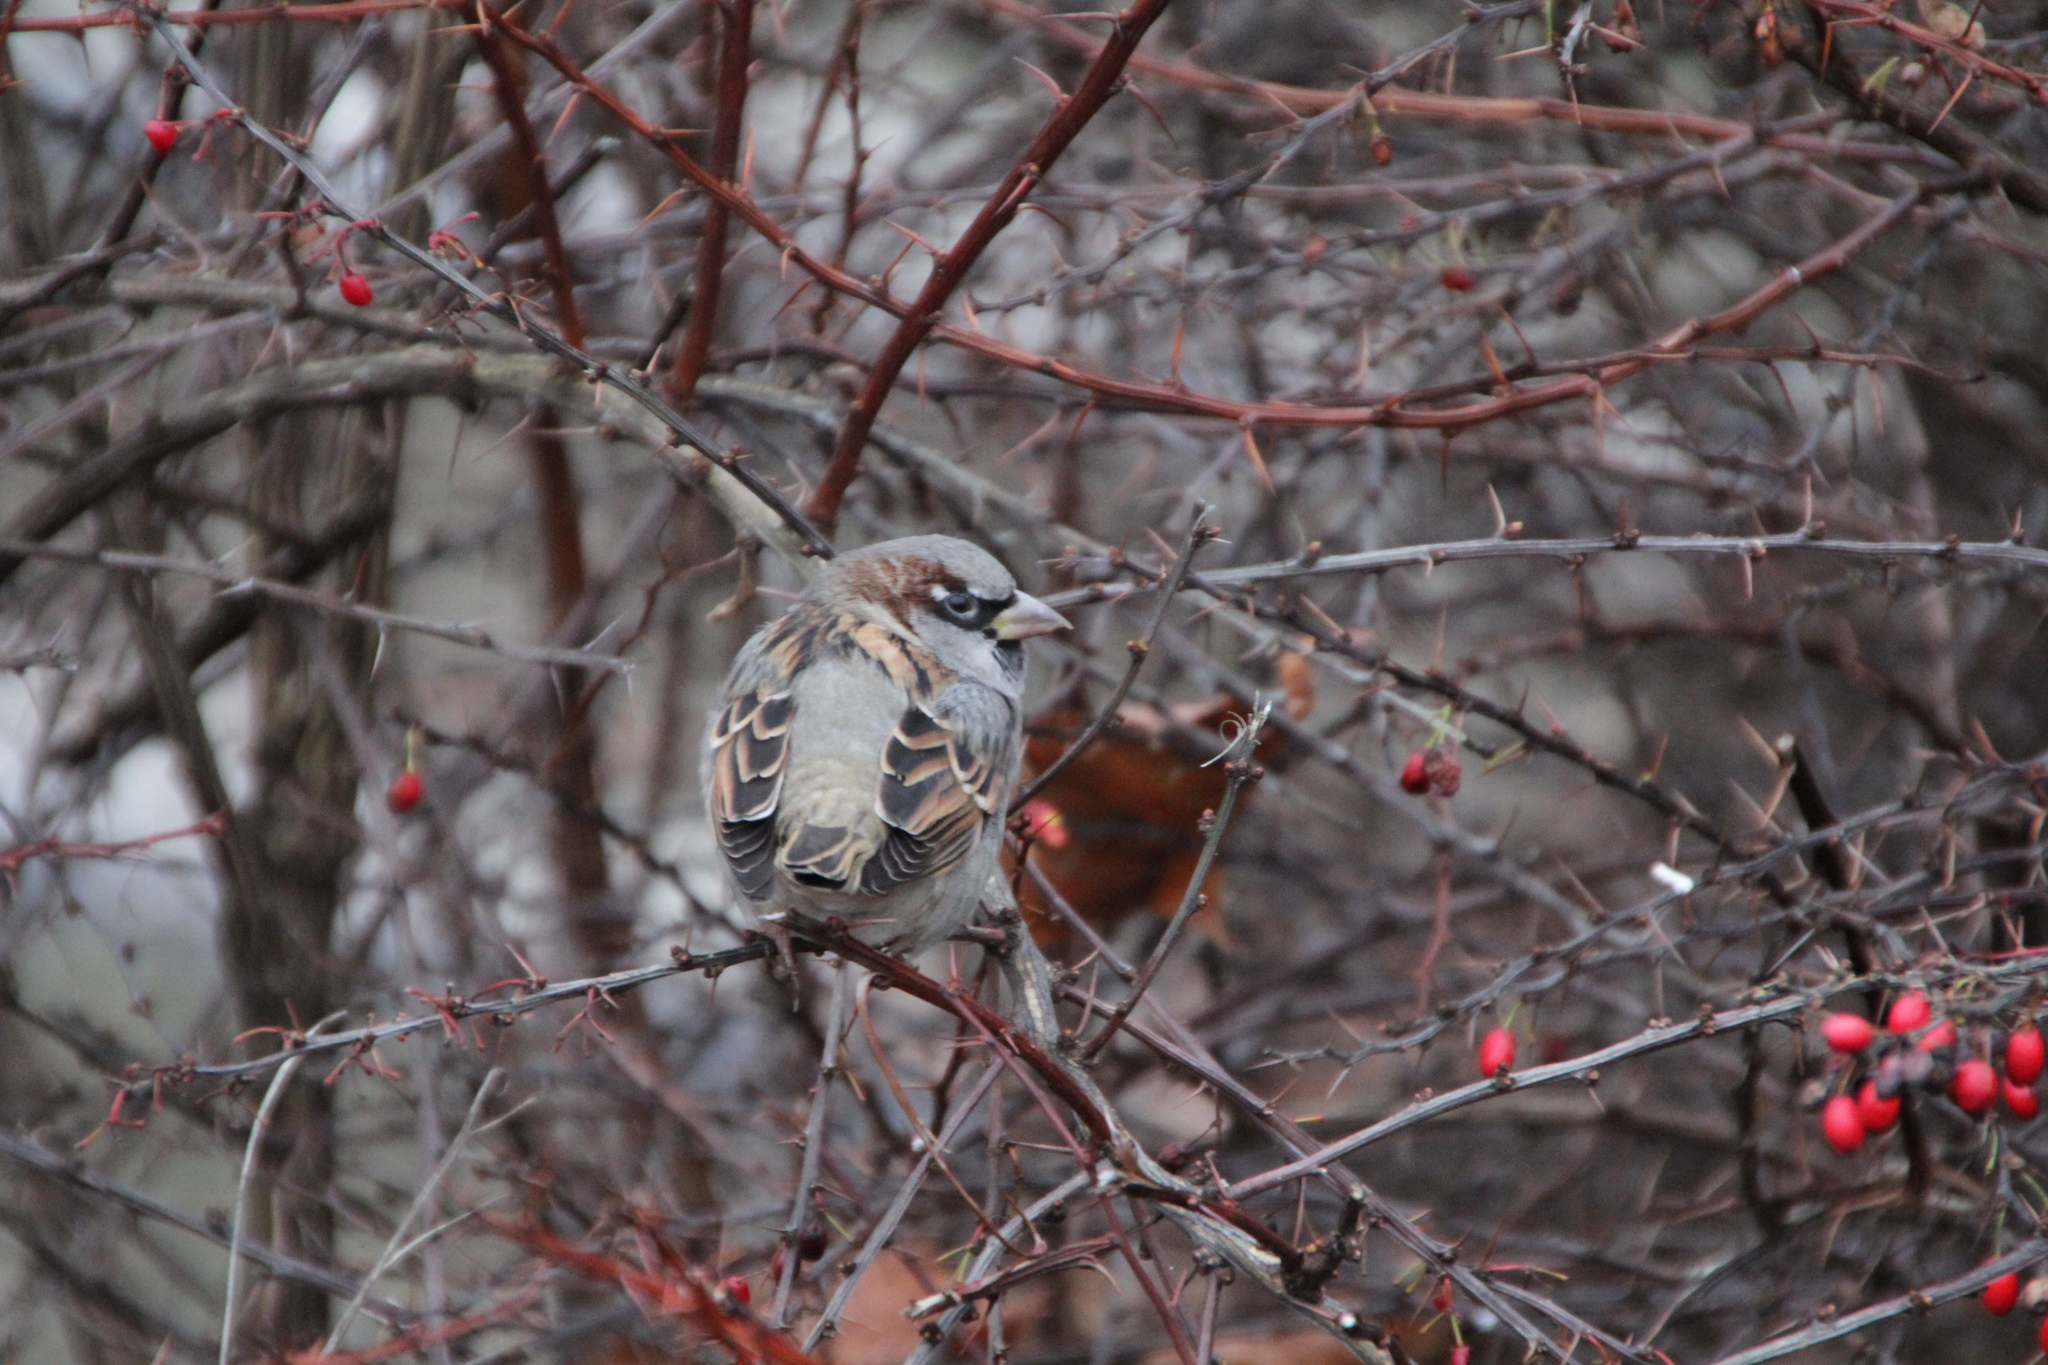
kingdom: Animalia
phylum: Chordata
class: Aves
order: Passeriformes
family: Passeridae
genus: Passer
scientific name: Passer domesticus
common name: House sparrow
